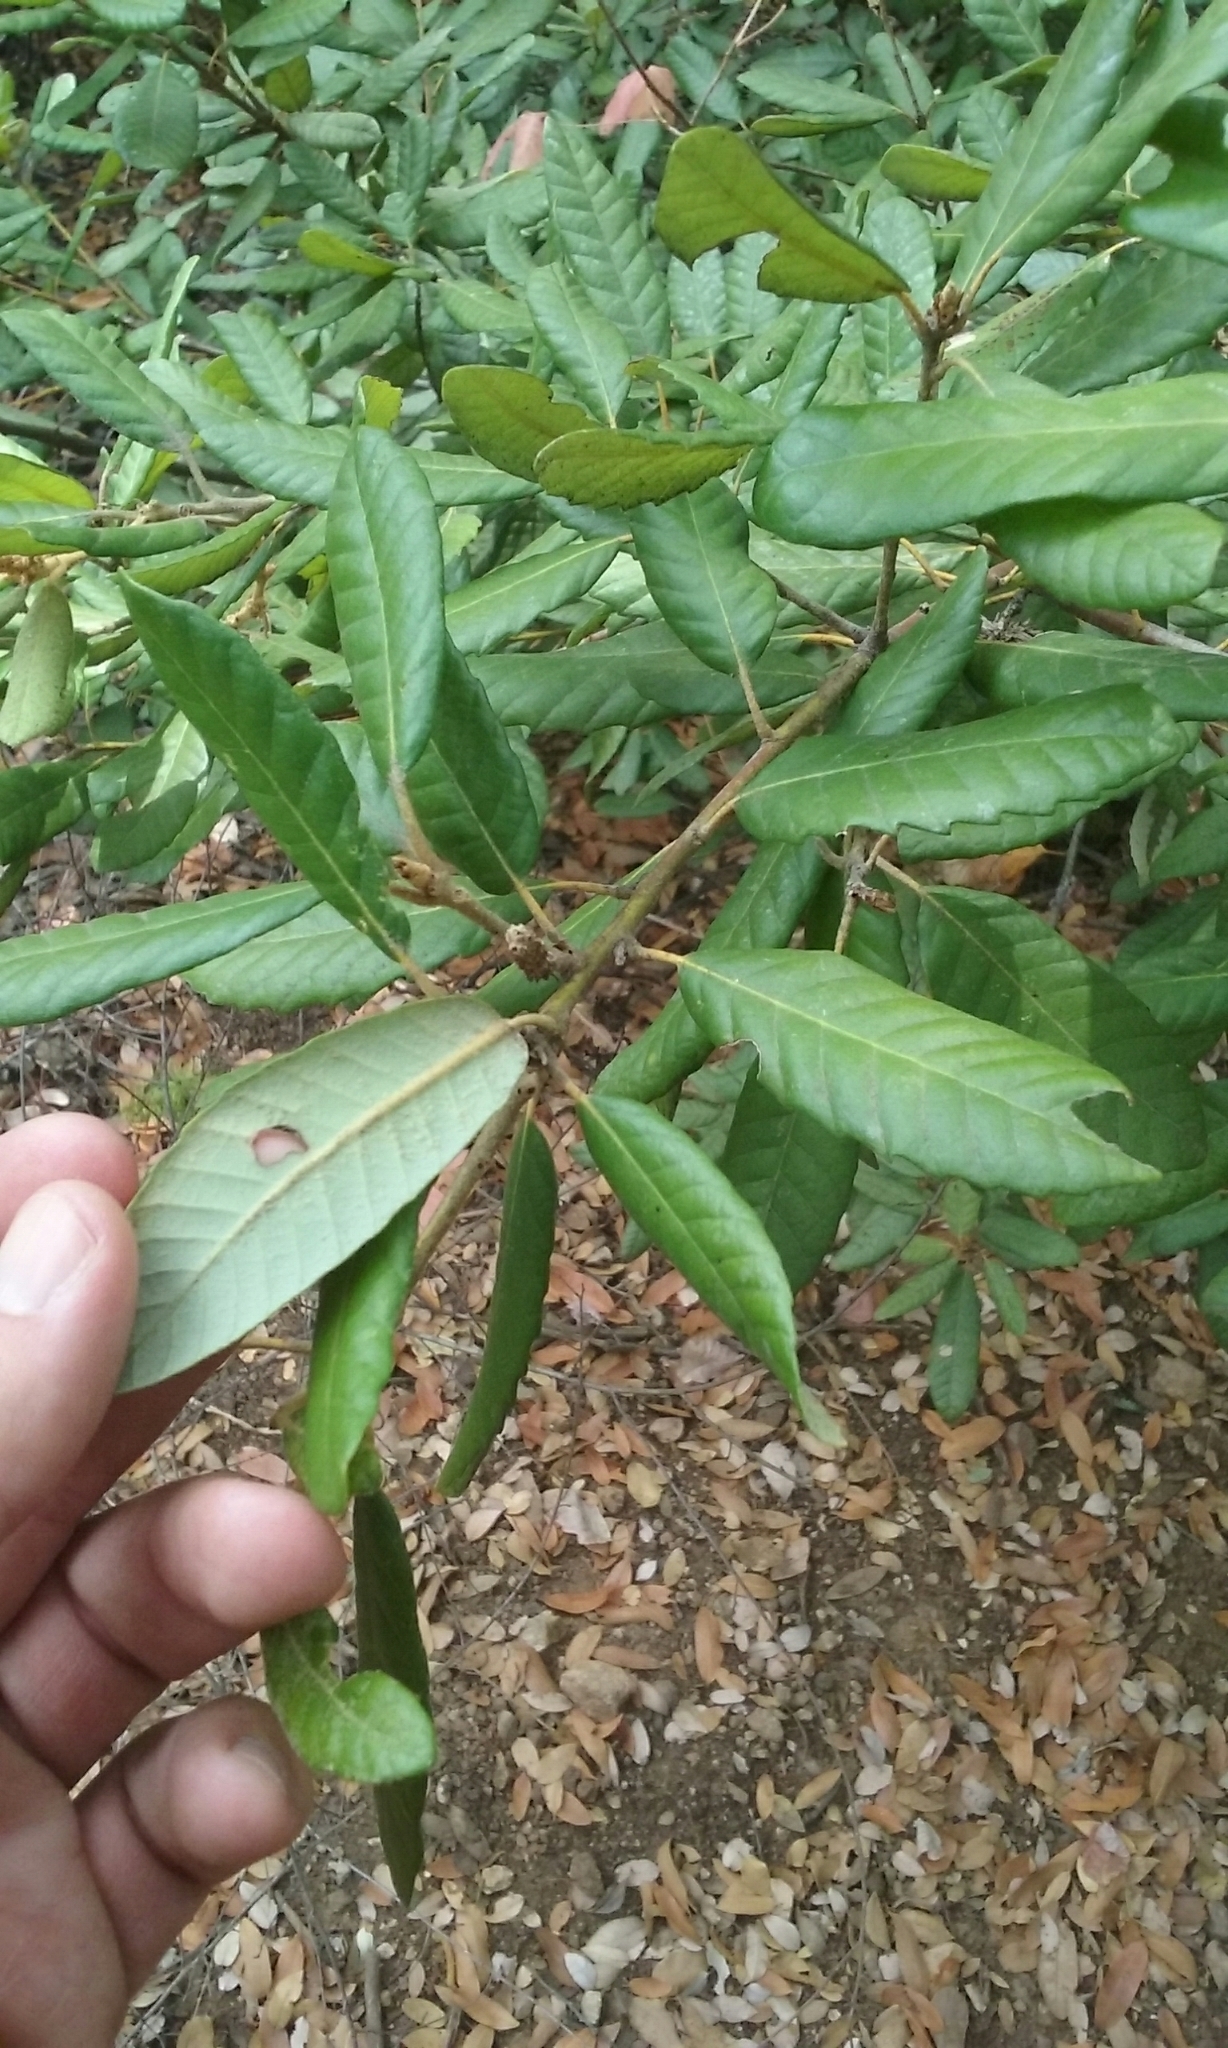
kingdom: Plantae
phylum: Tracheophyta
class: Magnoliopsida
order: Fagales
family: Fagaceae
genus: Notholithocarpus
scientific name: Notholithocarpus densiflorus
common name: Tan bark oak
